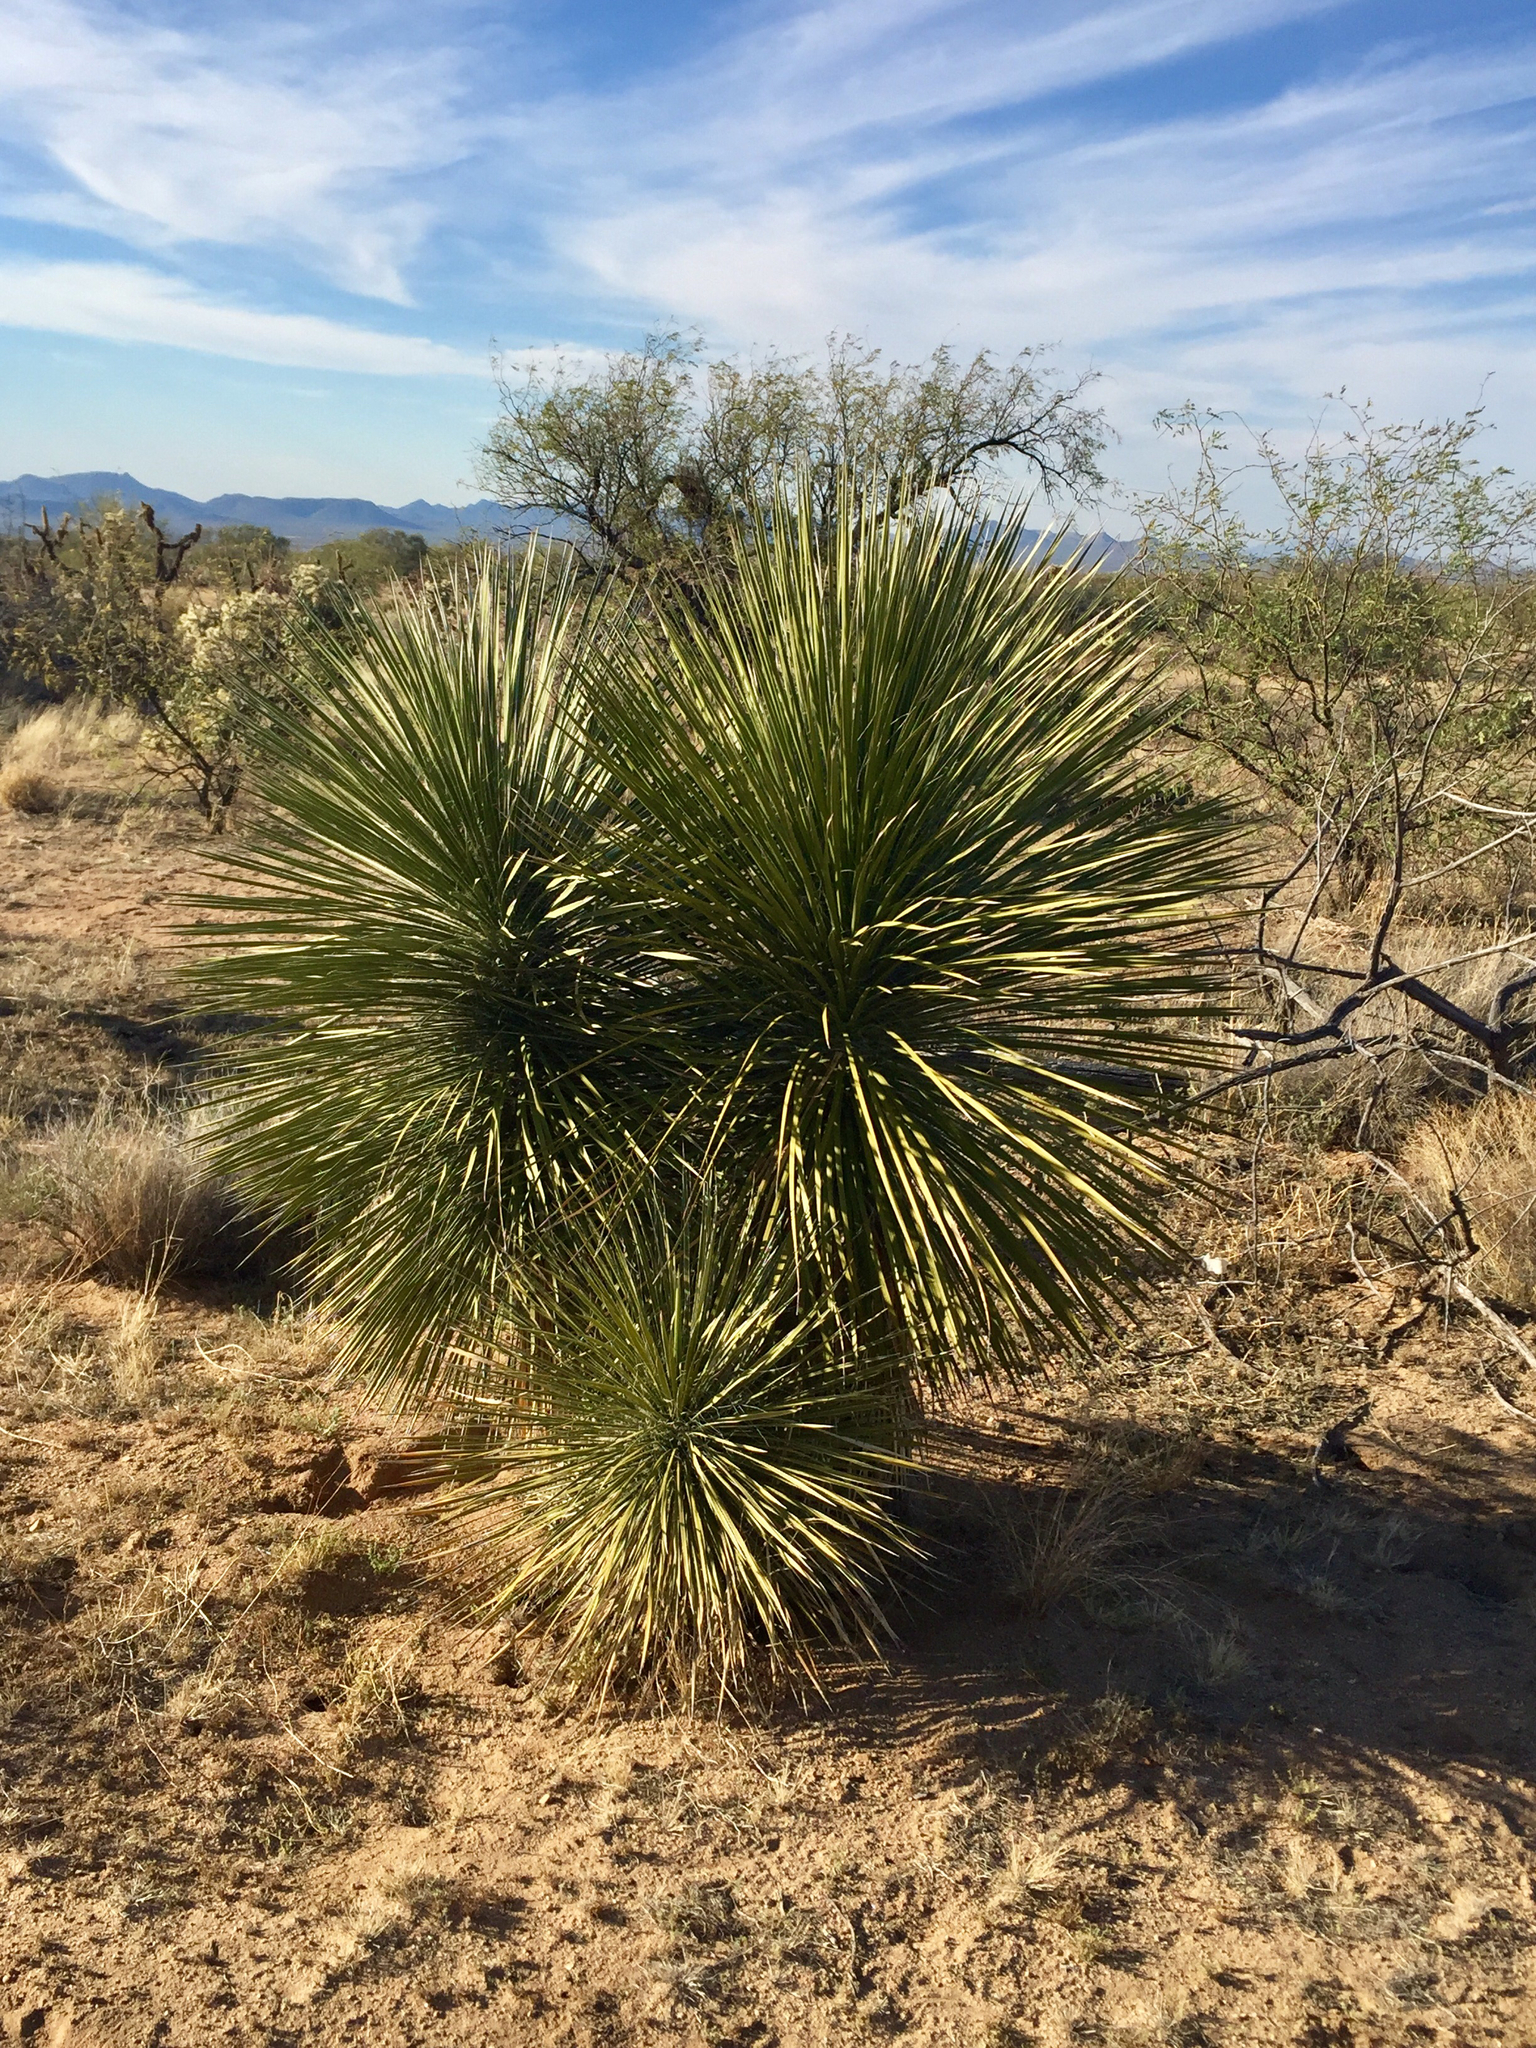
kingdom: Plantae
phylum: Tracheophyta
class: Liliopsida
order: Asparagales
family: Asparagaceae
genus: Yucca
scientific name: Yucca elata
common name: Palmella
